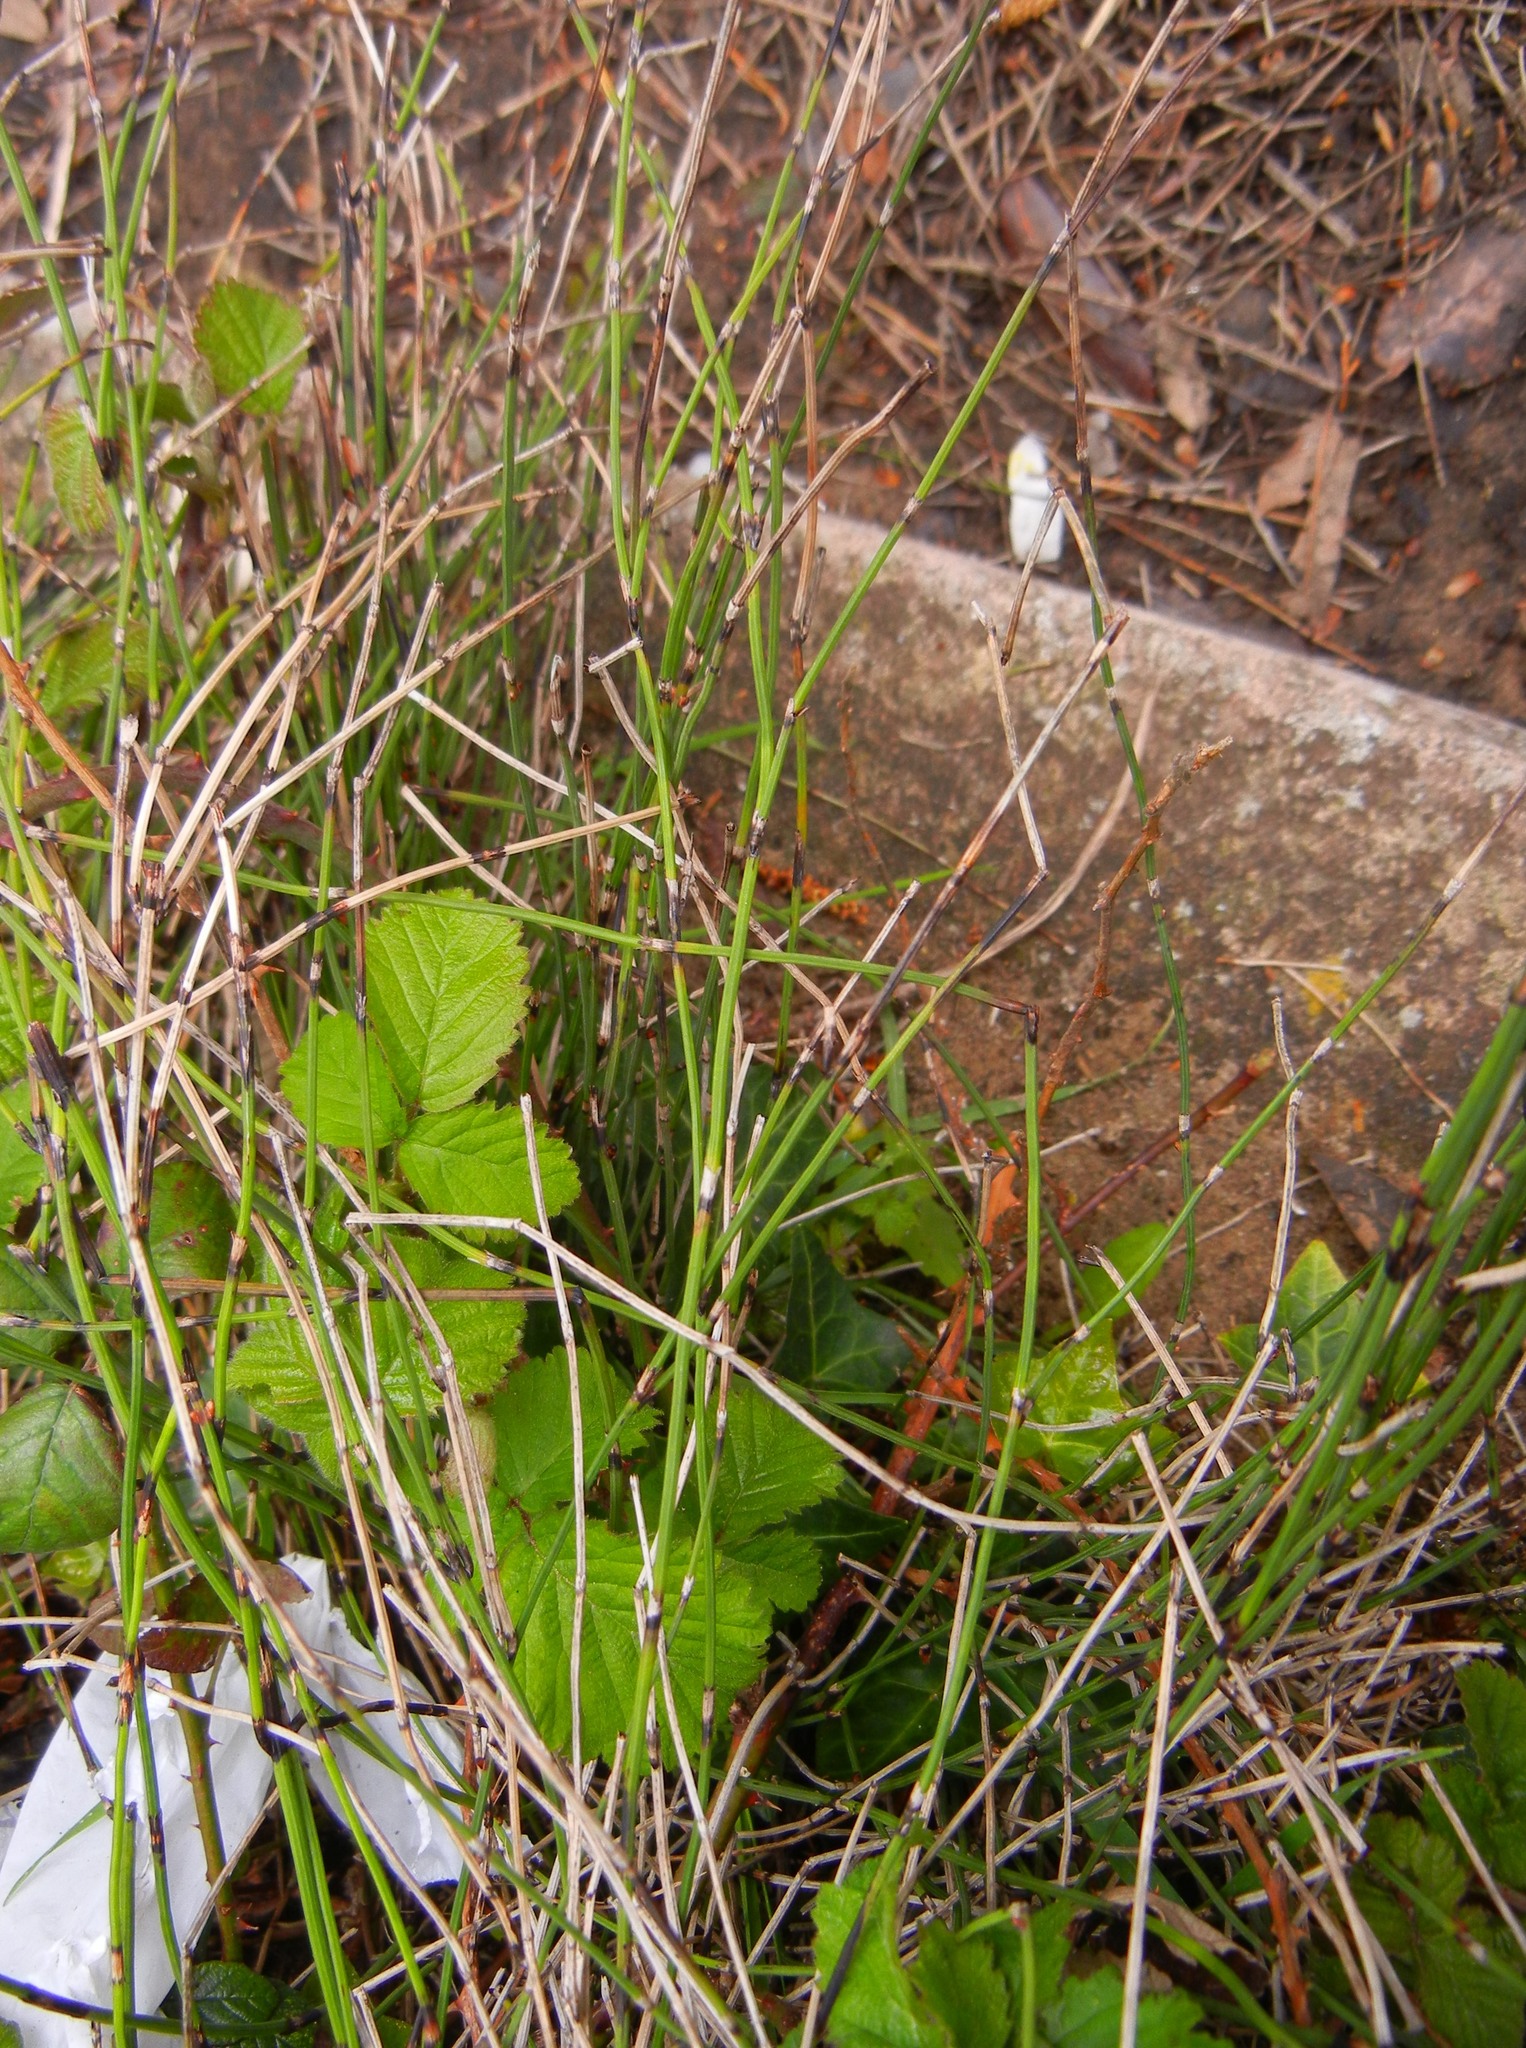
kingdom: Plantae
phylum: Tracheophyta
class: Polypodiopsida
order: Equisetales
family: Equisetaceae
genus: Equisetum
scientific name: Equisetum ramosissimum
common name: Branched horsetail
